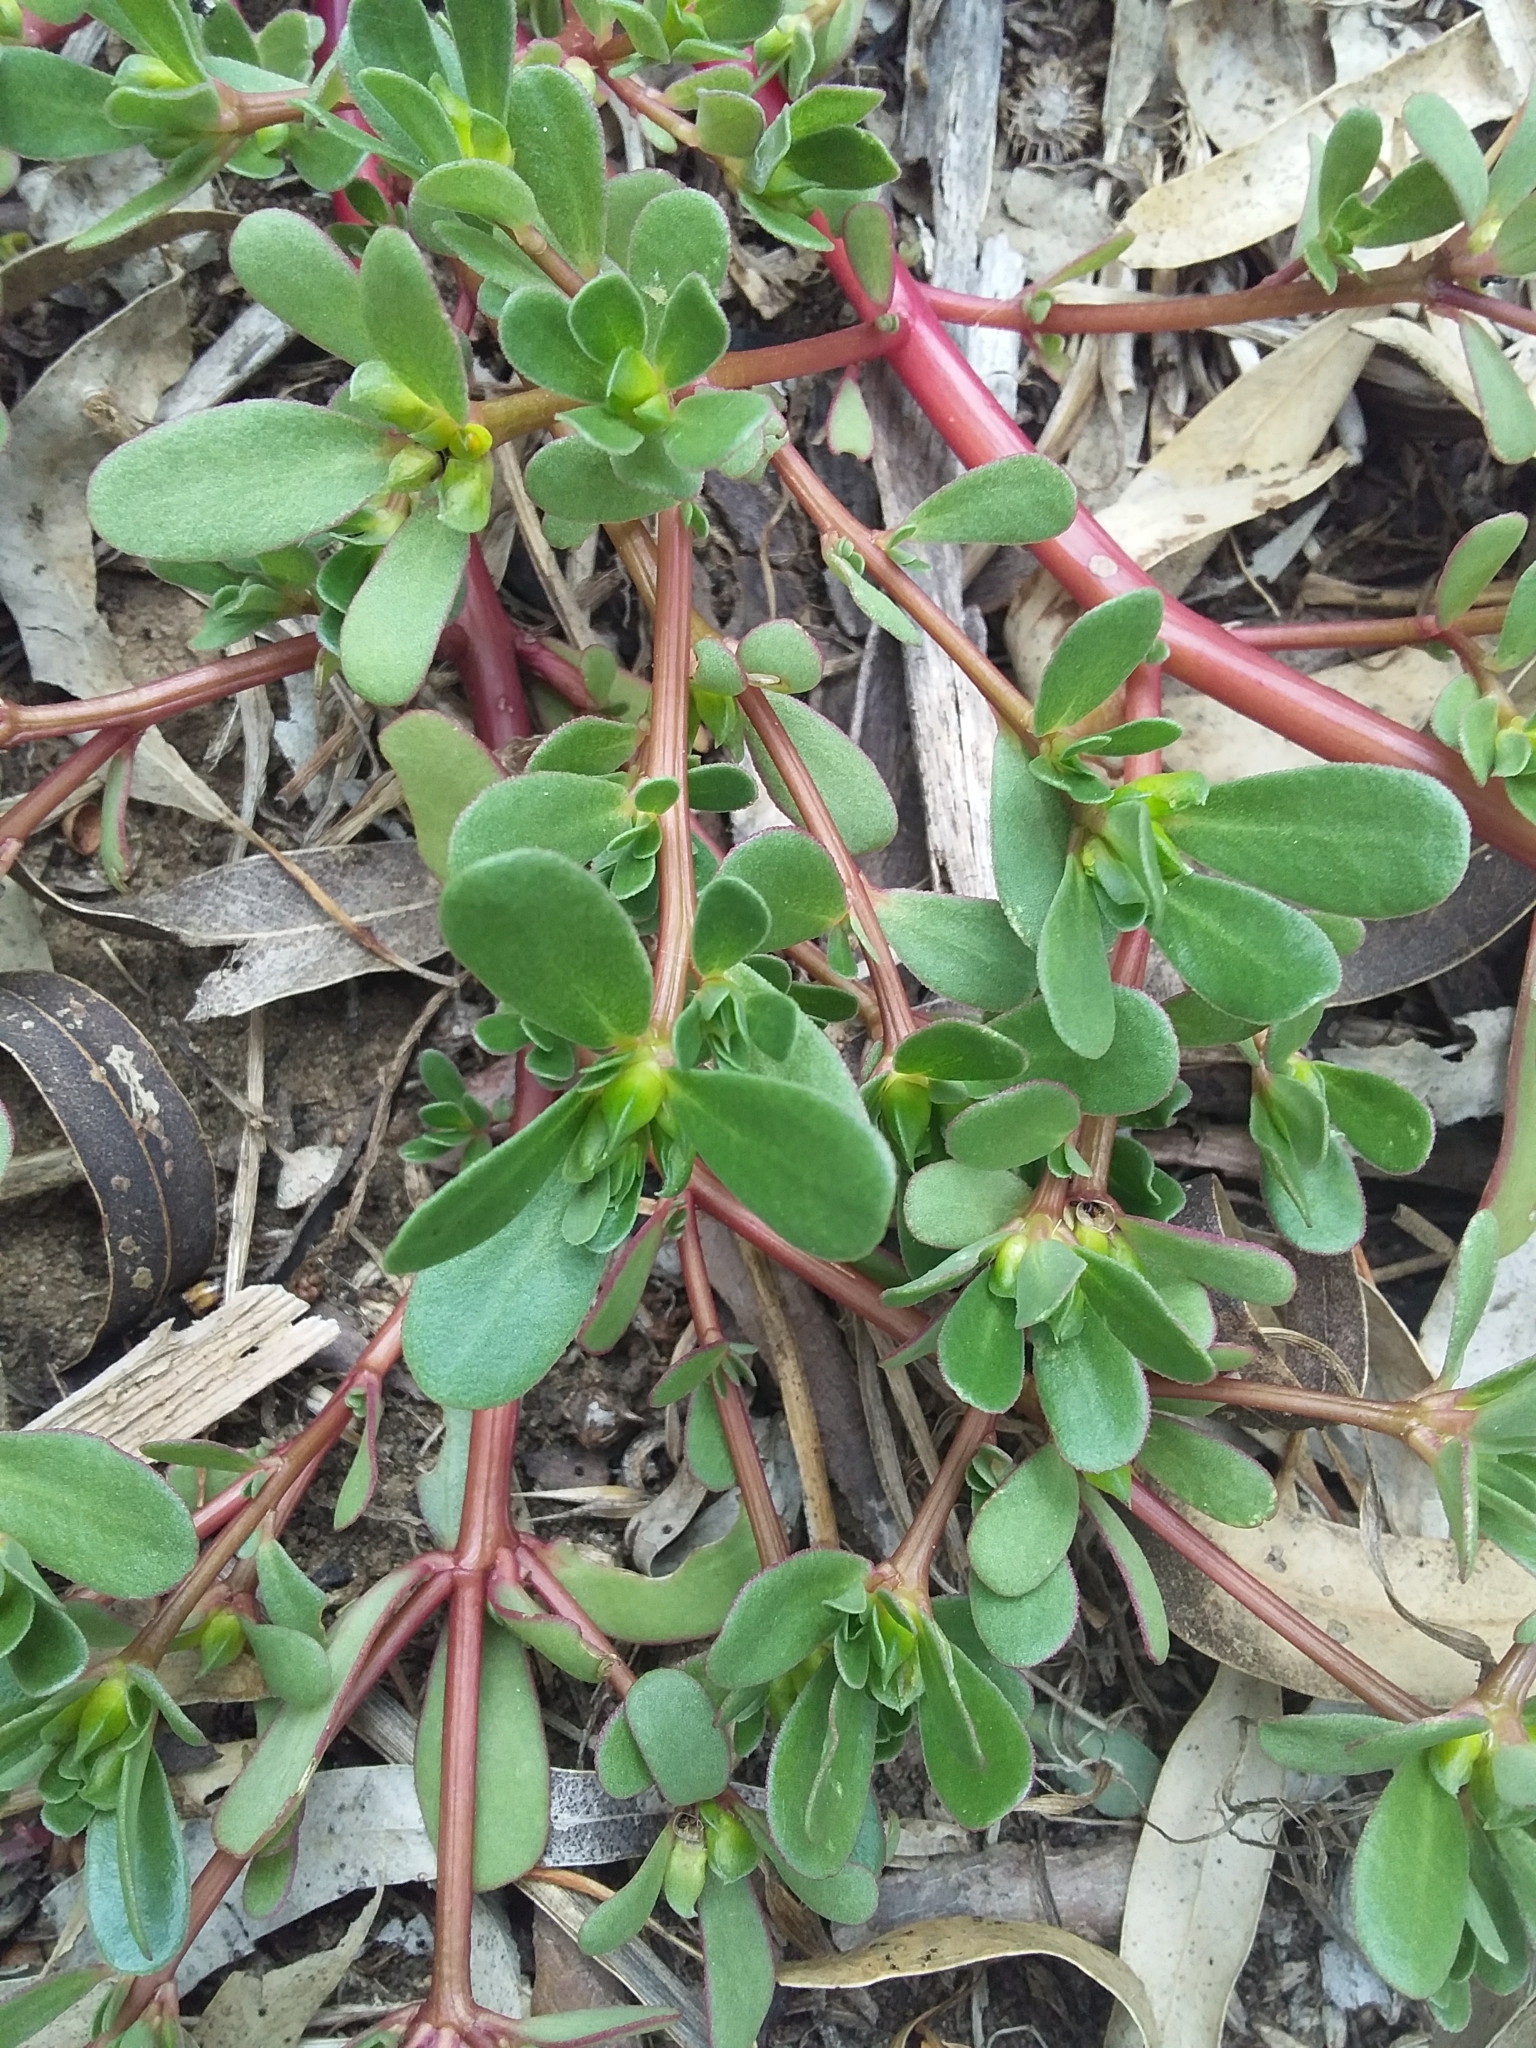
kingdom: Plantae
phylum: Tracheophyta
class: Magnoliopsida
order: Caryophyllales
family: Portulacaceae
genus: Portulaca
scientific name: Portulaca oleracea
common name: Common purslane
